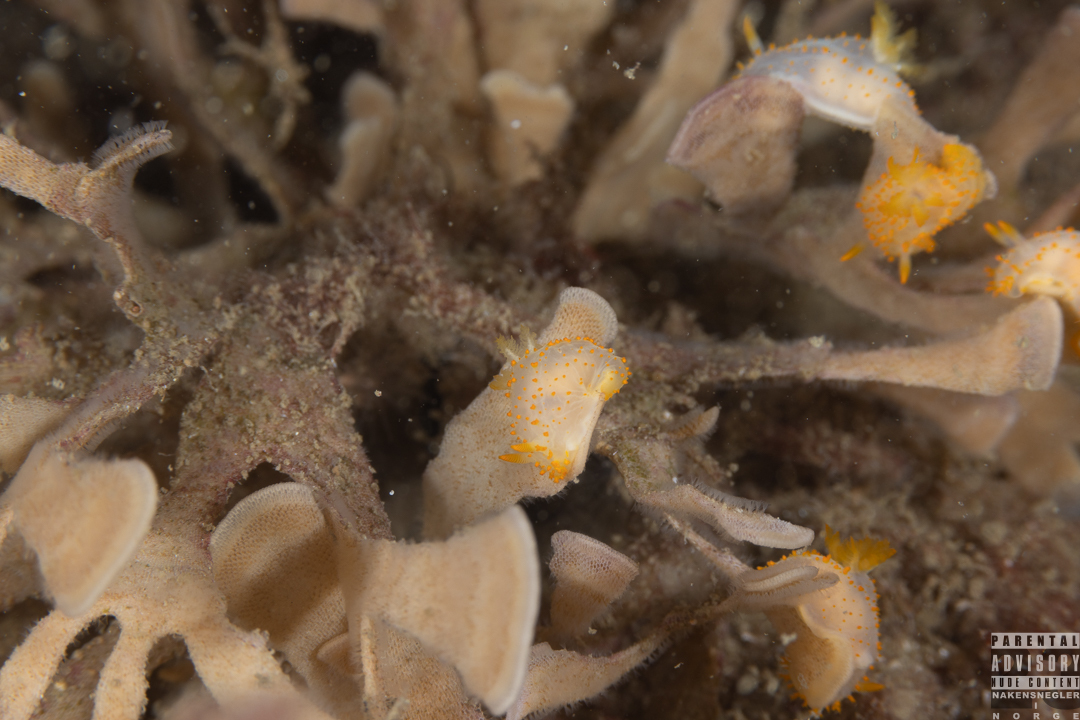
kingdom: Animalia
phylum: Mollusca
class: Gastropoda
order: Nudibranchia
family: Polyceridae
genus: Crimora
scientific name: Crimora papillata
